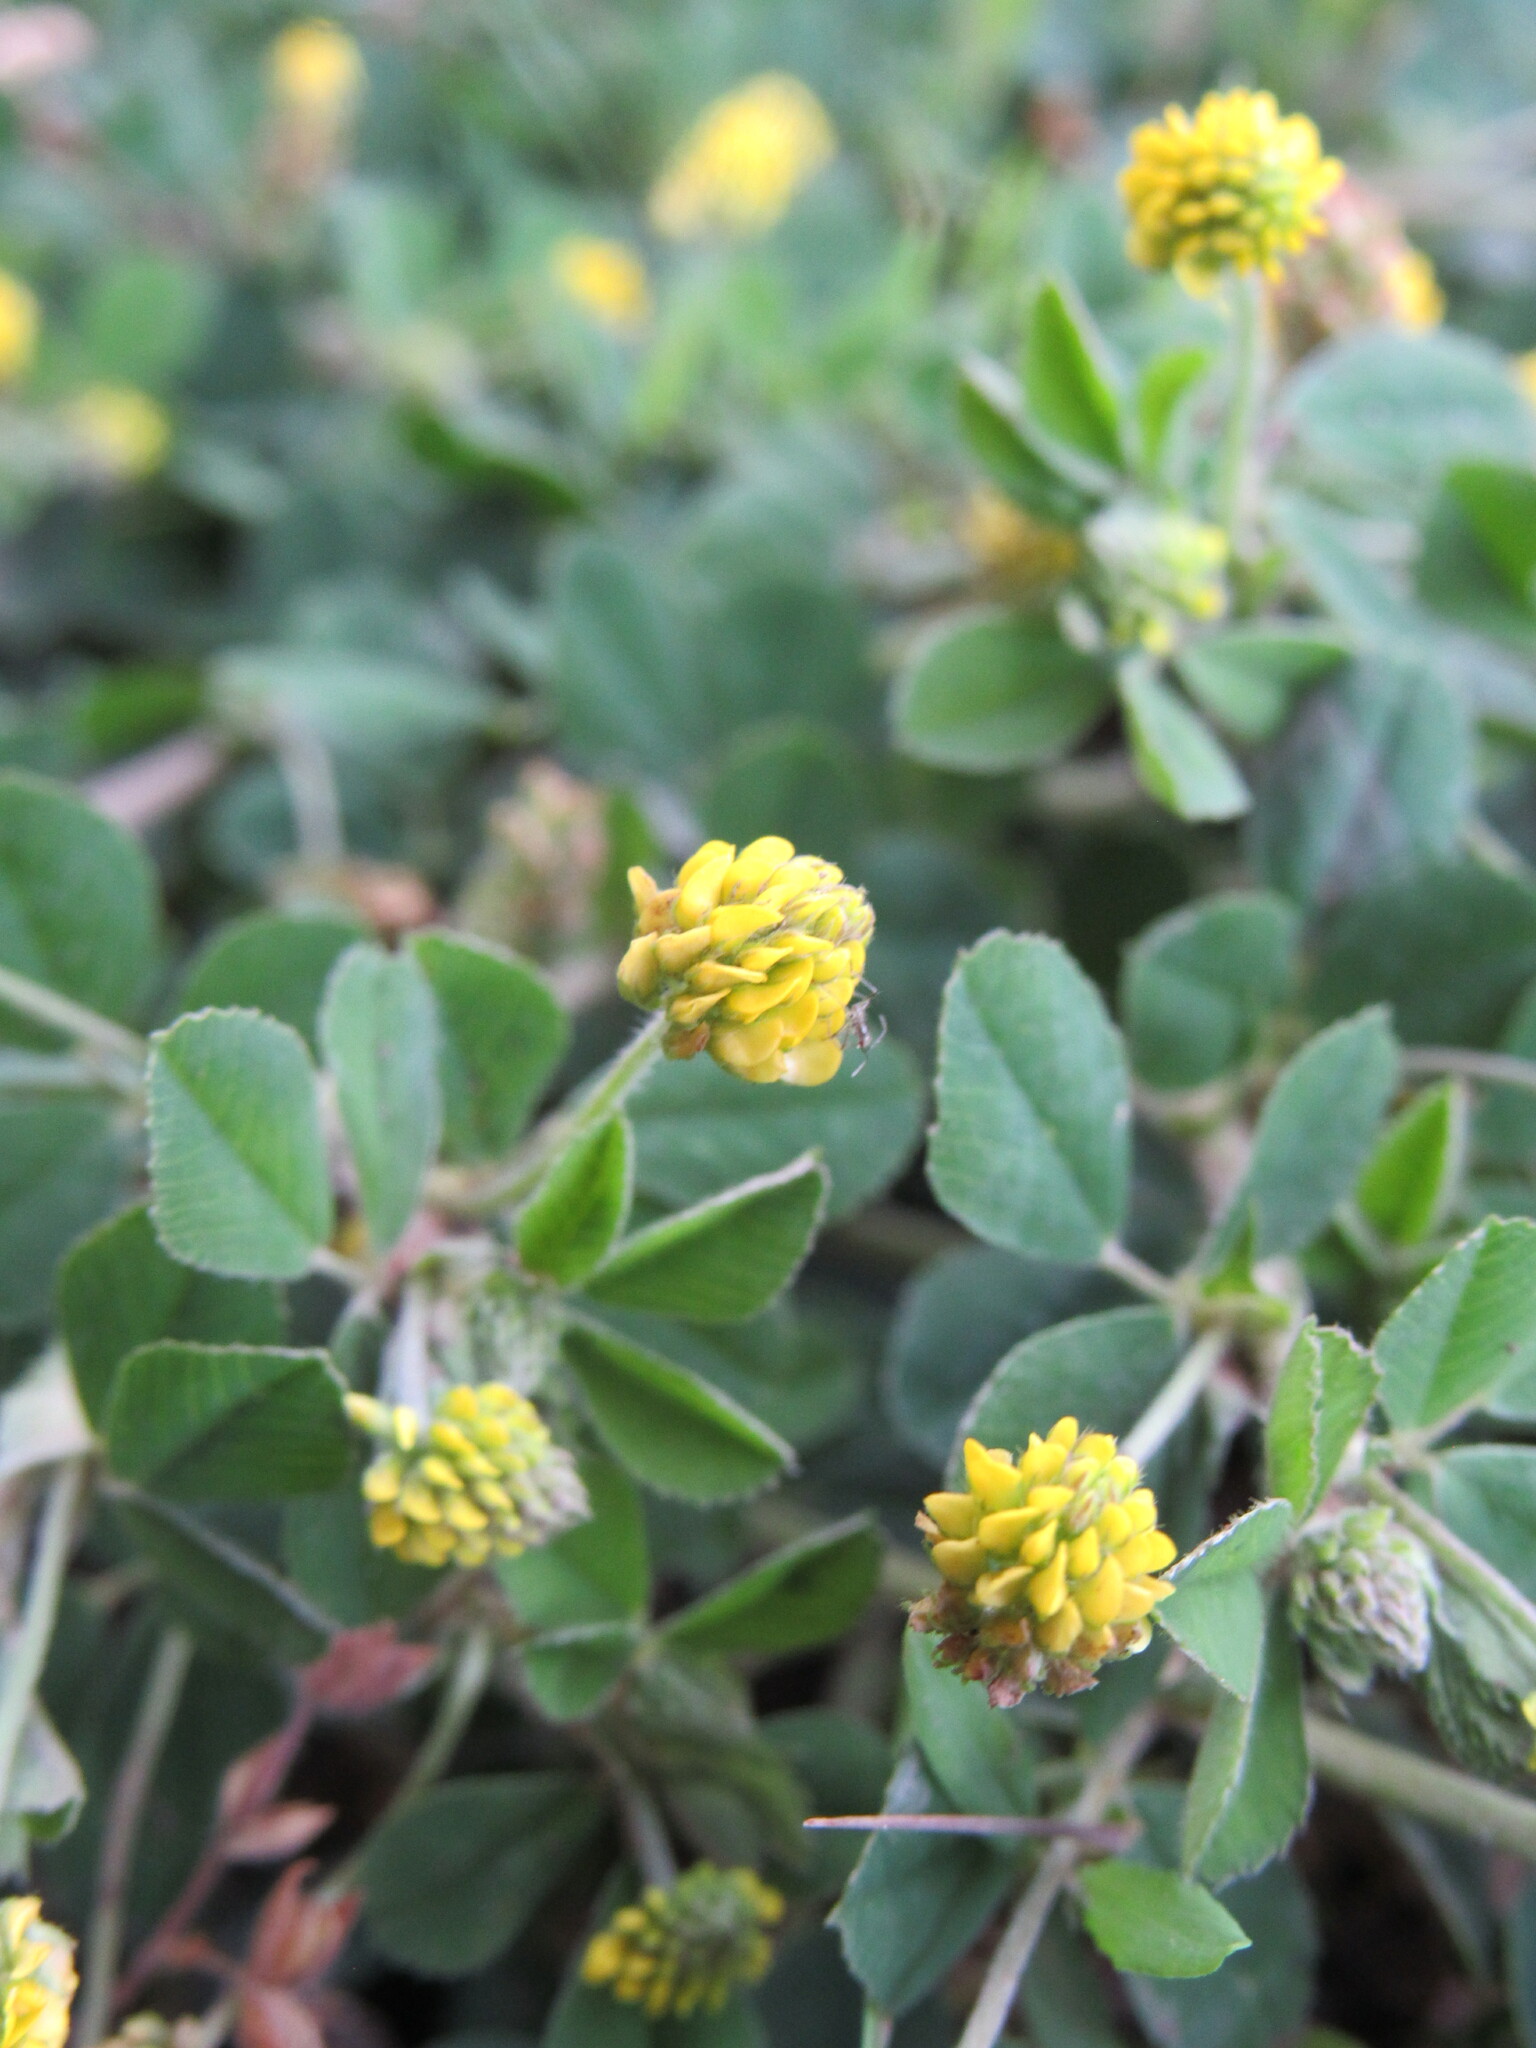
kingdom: Plantae
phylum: Tracheophyta
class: Magnoliopsida
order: Fabales
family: Fabaceae
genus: Medicago
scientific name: Medicago lupulina
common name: Black medick
